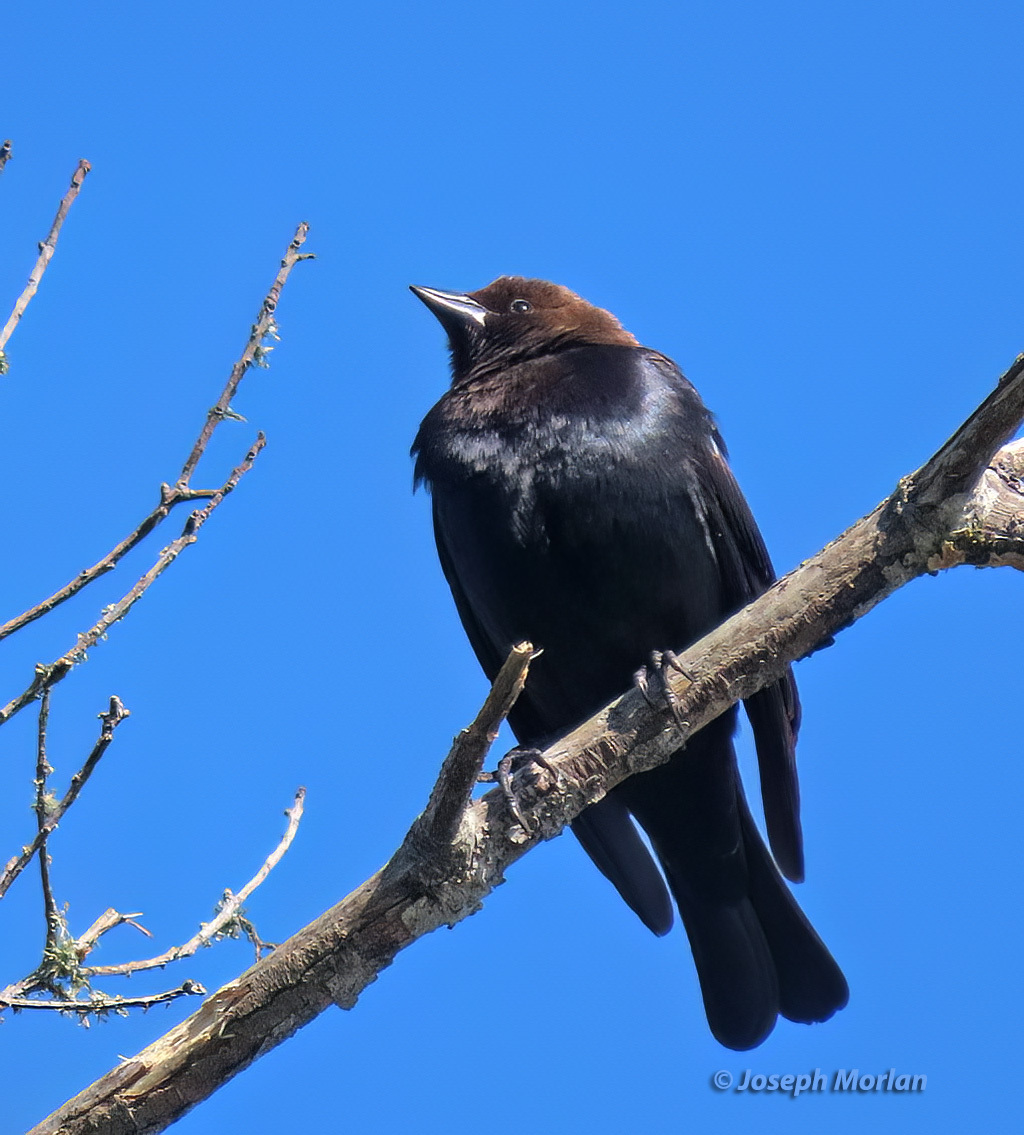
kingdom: Animalia
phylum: Chordata
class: Aves
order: Passeriformes
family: Icteridae
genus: Molothrus
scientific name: Molothrus ater
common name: Brown-headed cowbird
